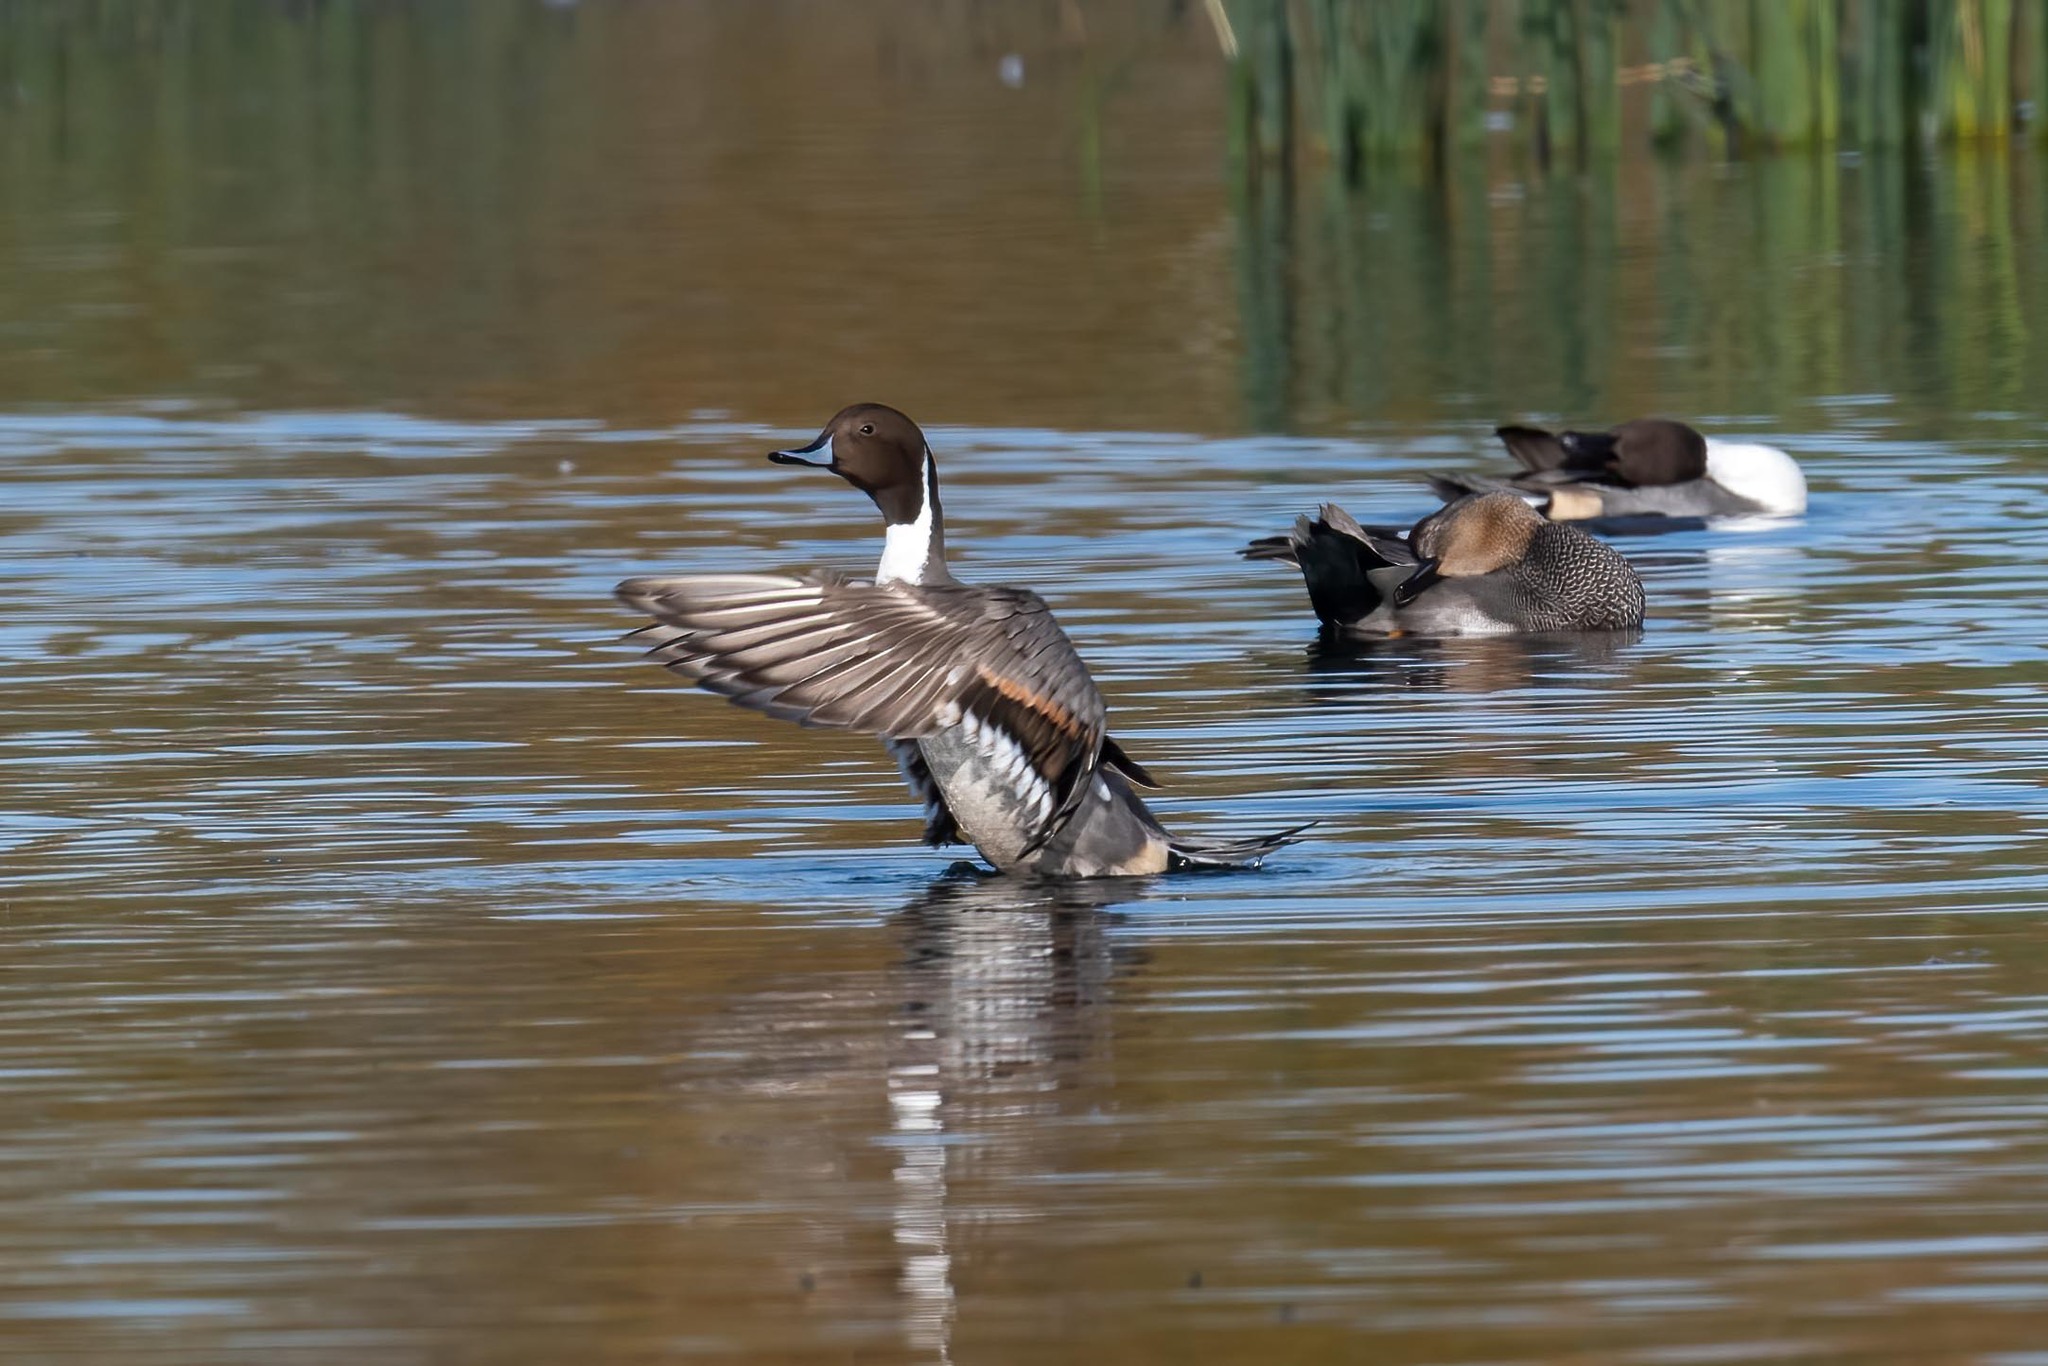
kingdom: Animalia
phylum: Chordata
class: Aves
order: Anseriformes
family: Anatidae
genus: Anas
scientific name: Anas acuta
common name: Northern pintail
